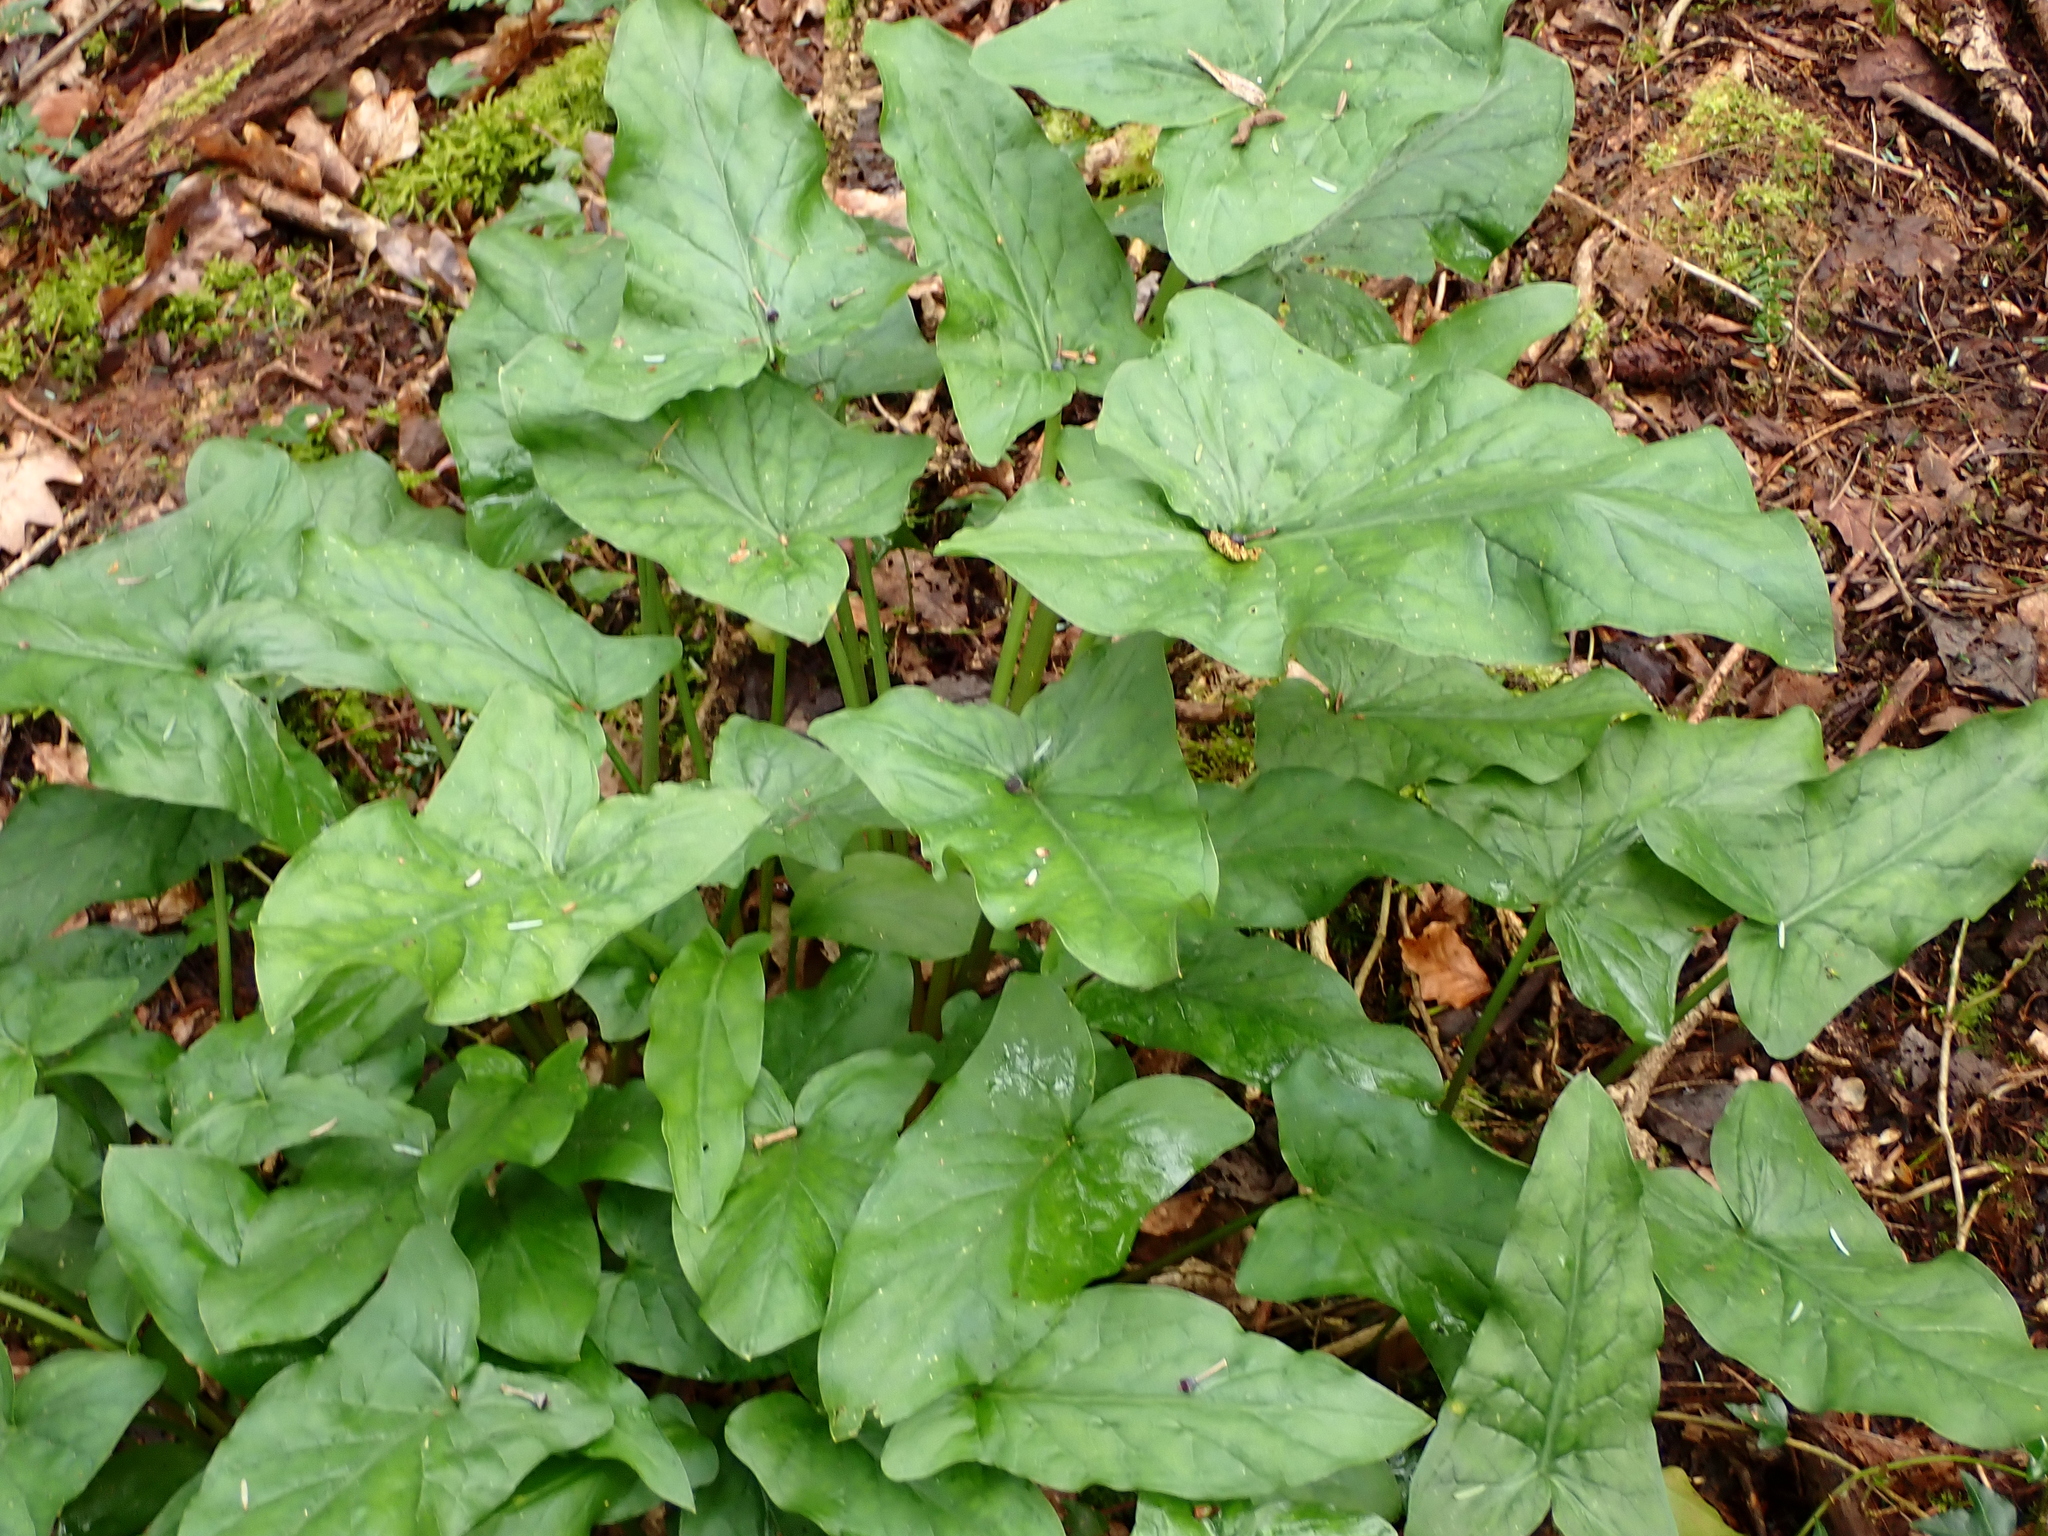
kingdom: Plantae
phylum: Tracheophyta
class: Liliopsida
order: Alismatales
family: Araceae
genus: Arum
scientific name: Arum maculatum
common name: Lords-and-ladies
